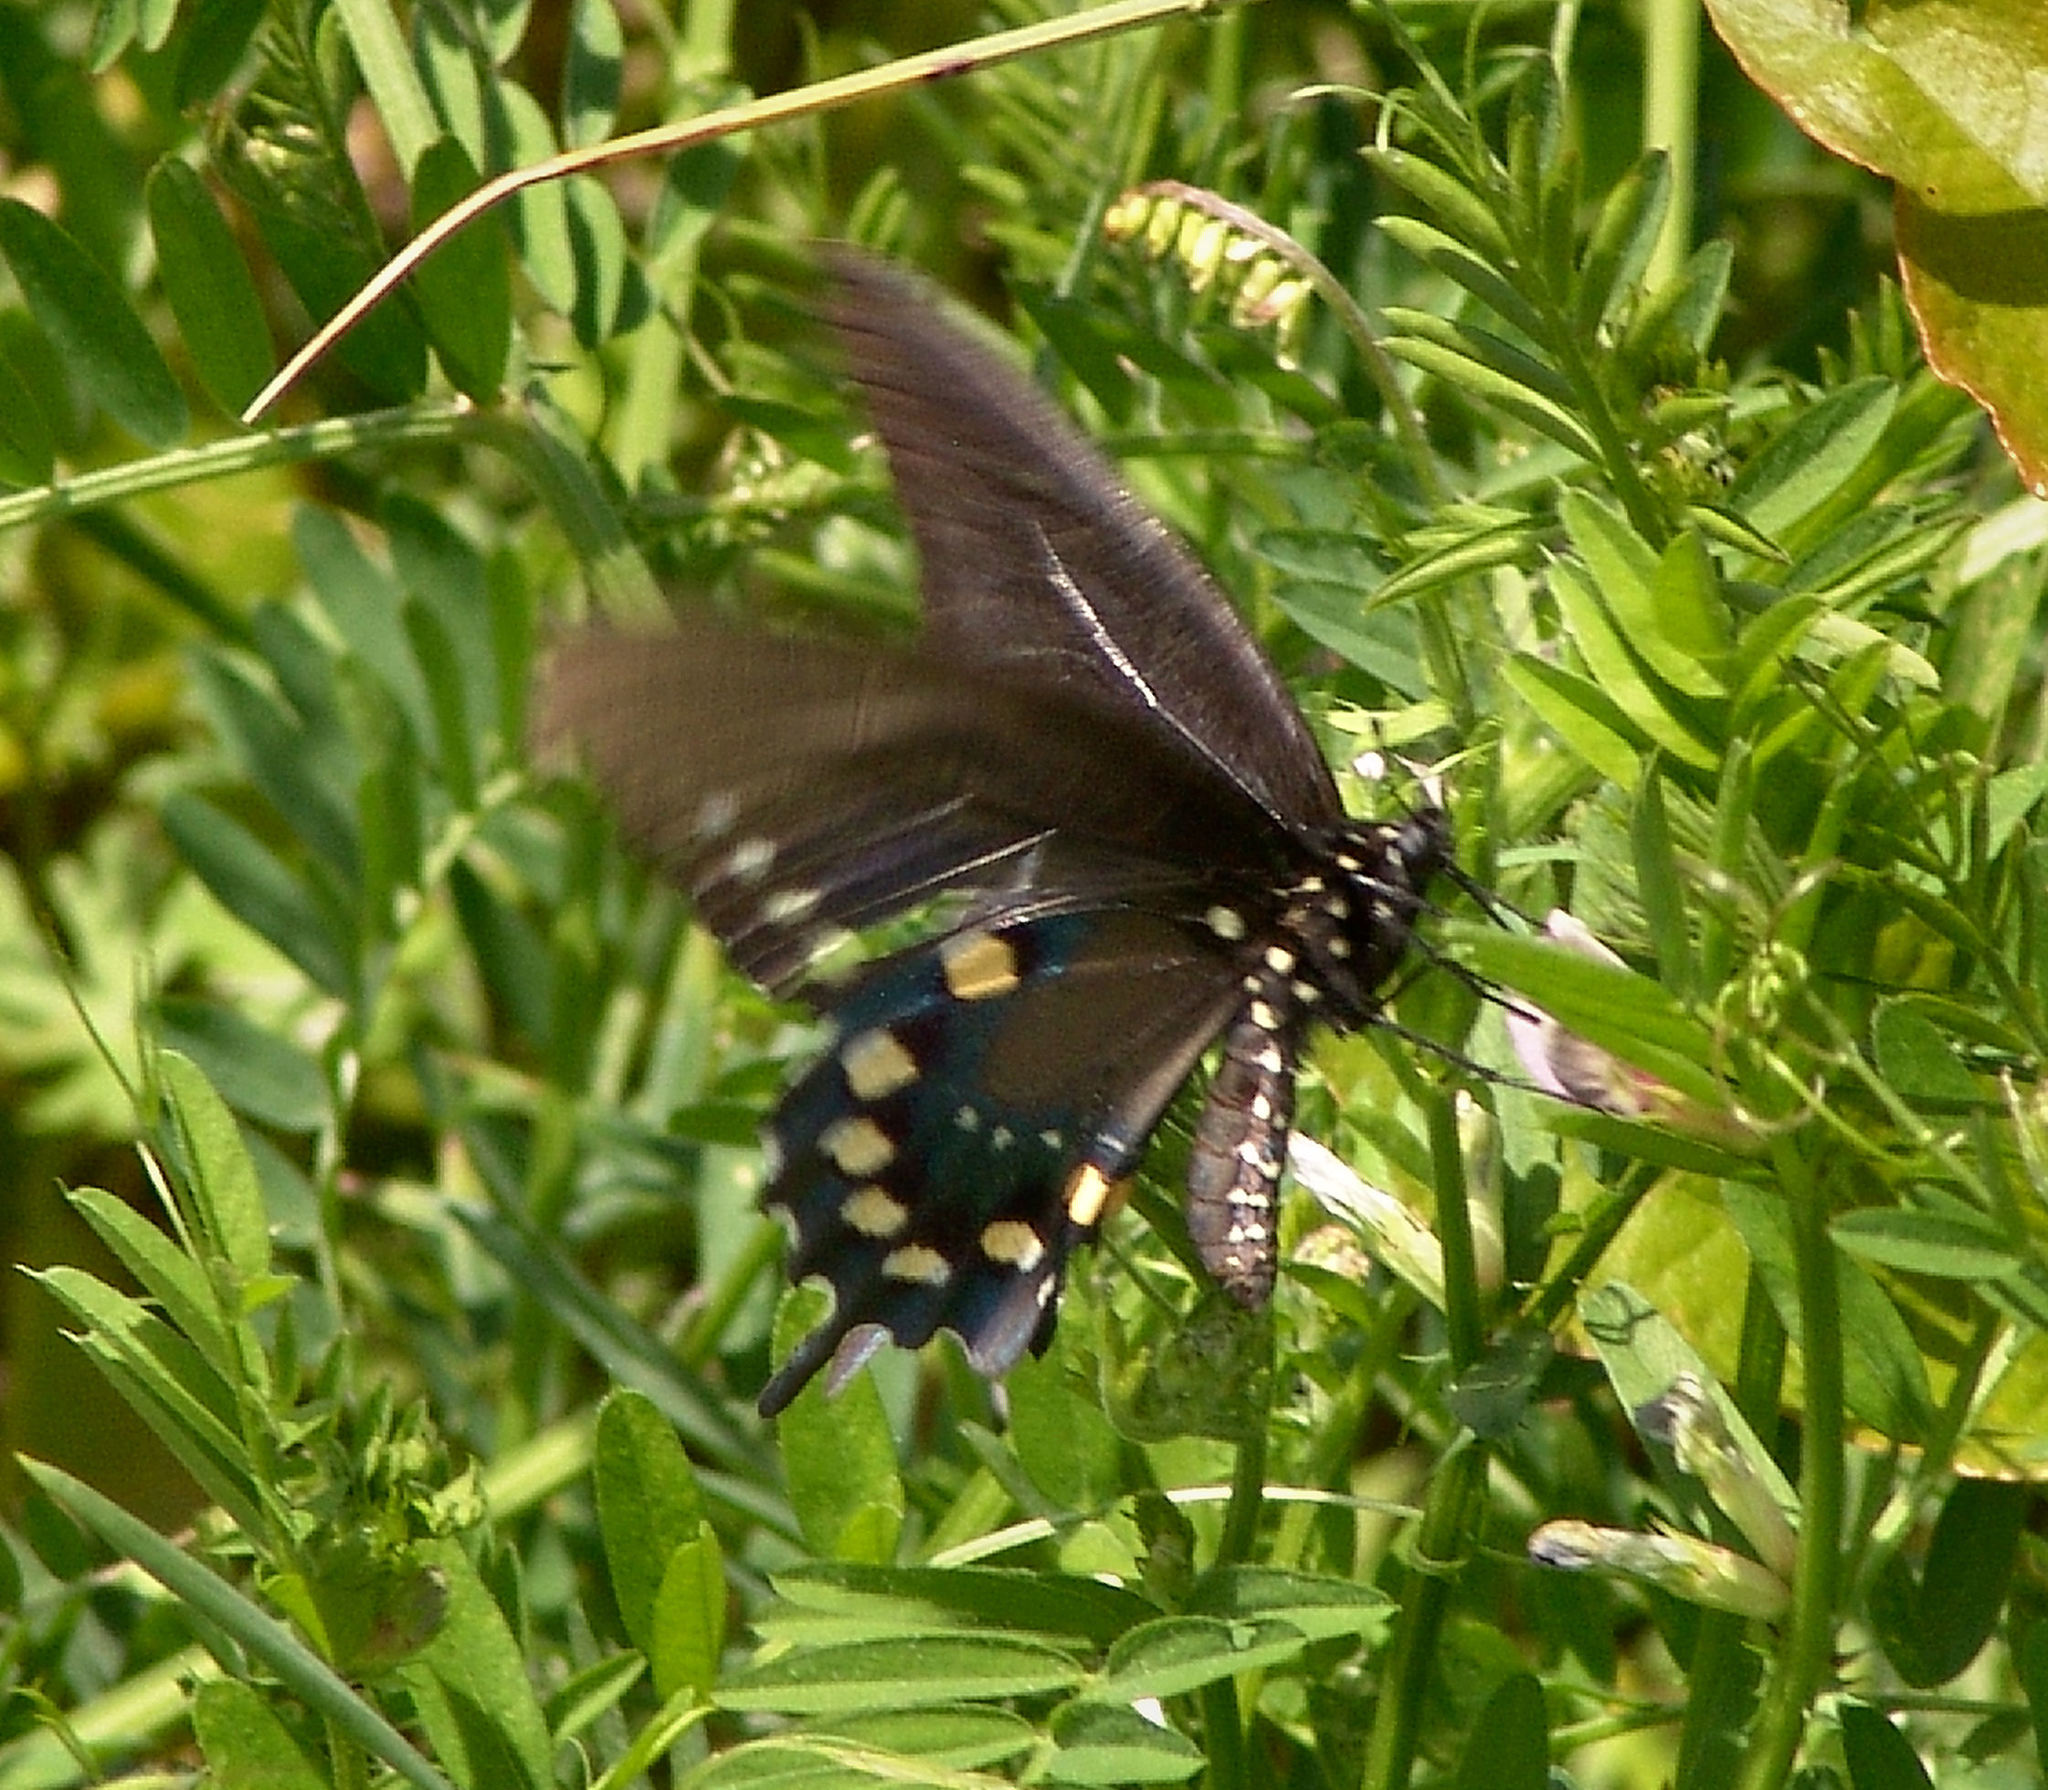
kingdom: Animalia
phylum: Arthropoda
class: Insecta
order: Lepidoptera
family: Papilionidae
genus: Battus
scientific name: Battus philenor
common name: Pipevine swallowtail
